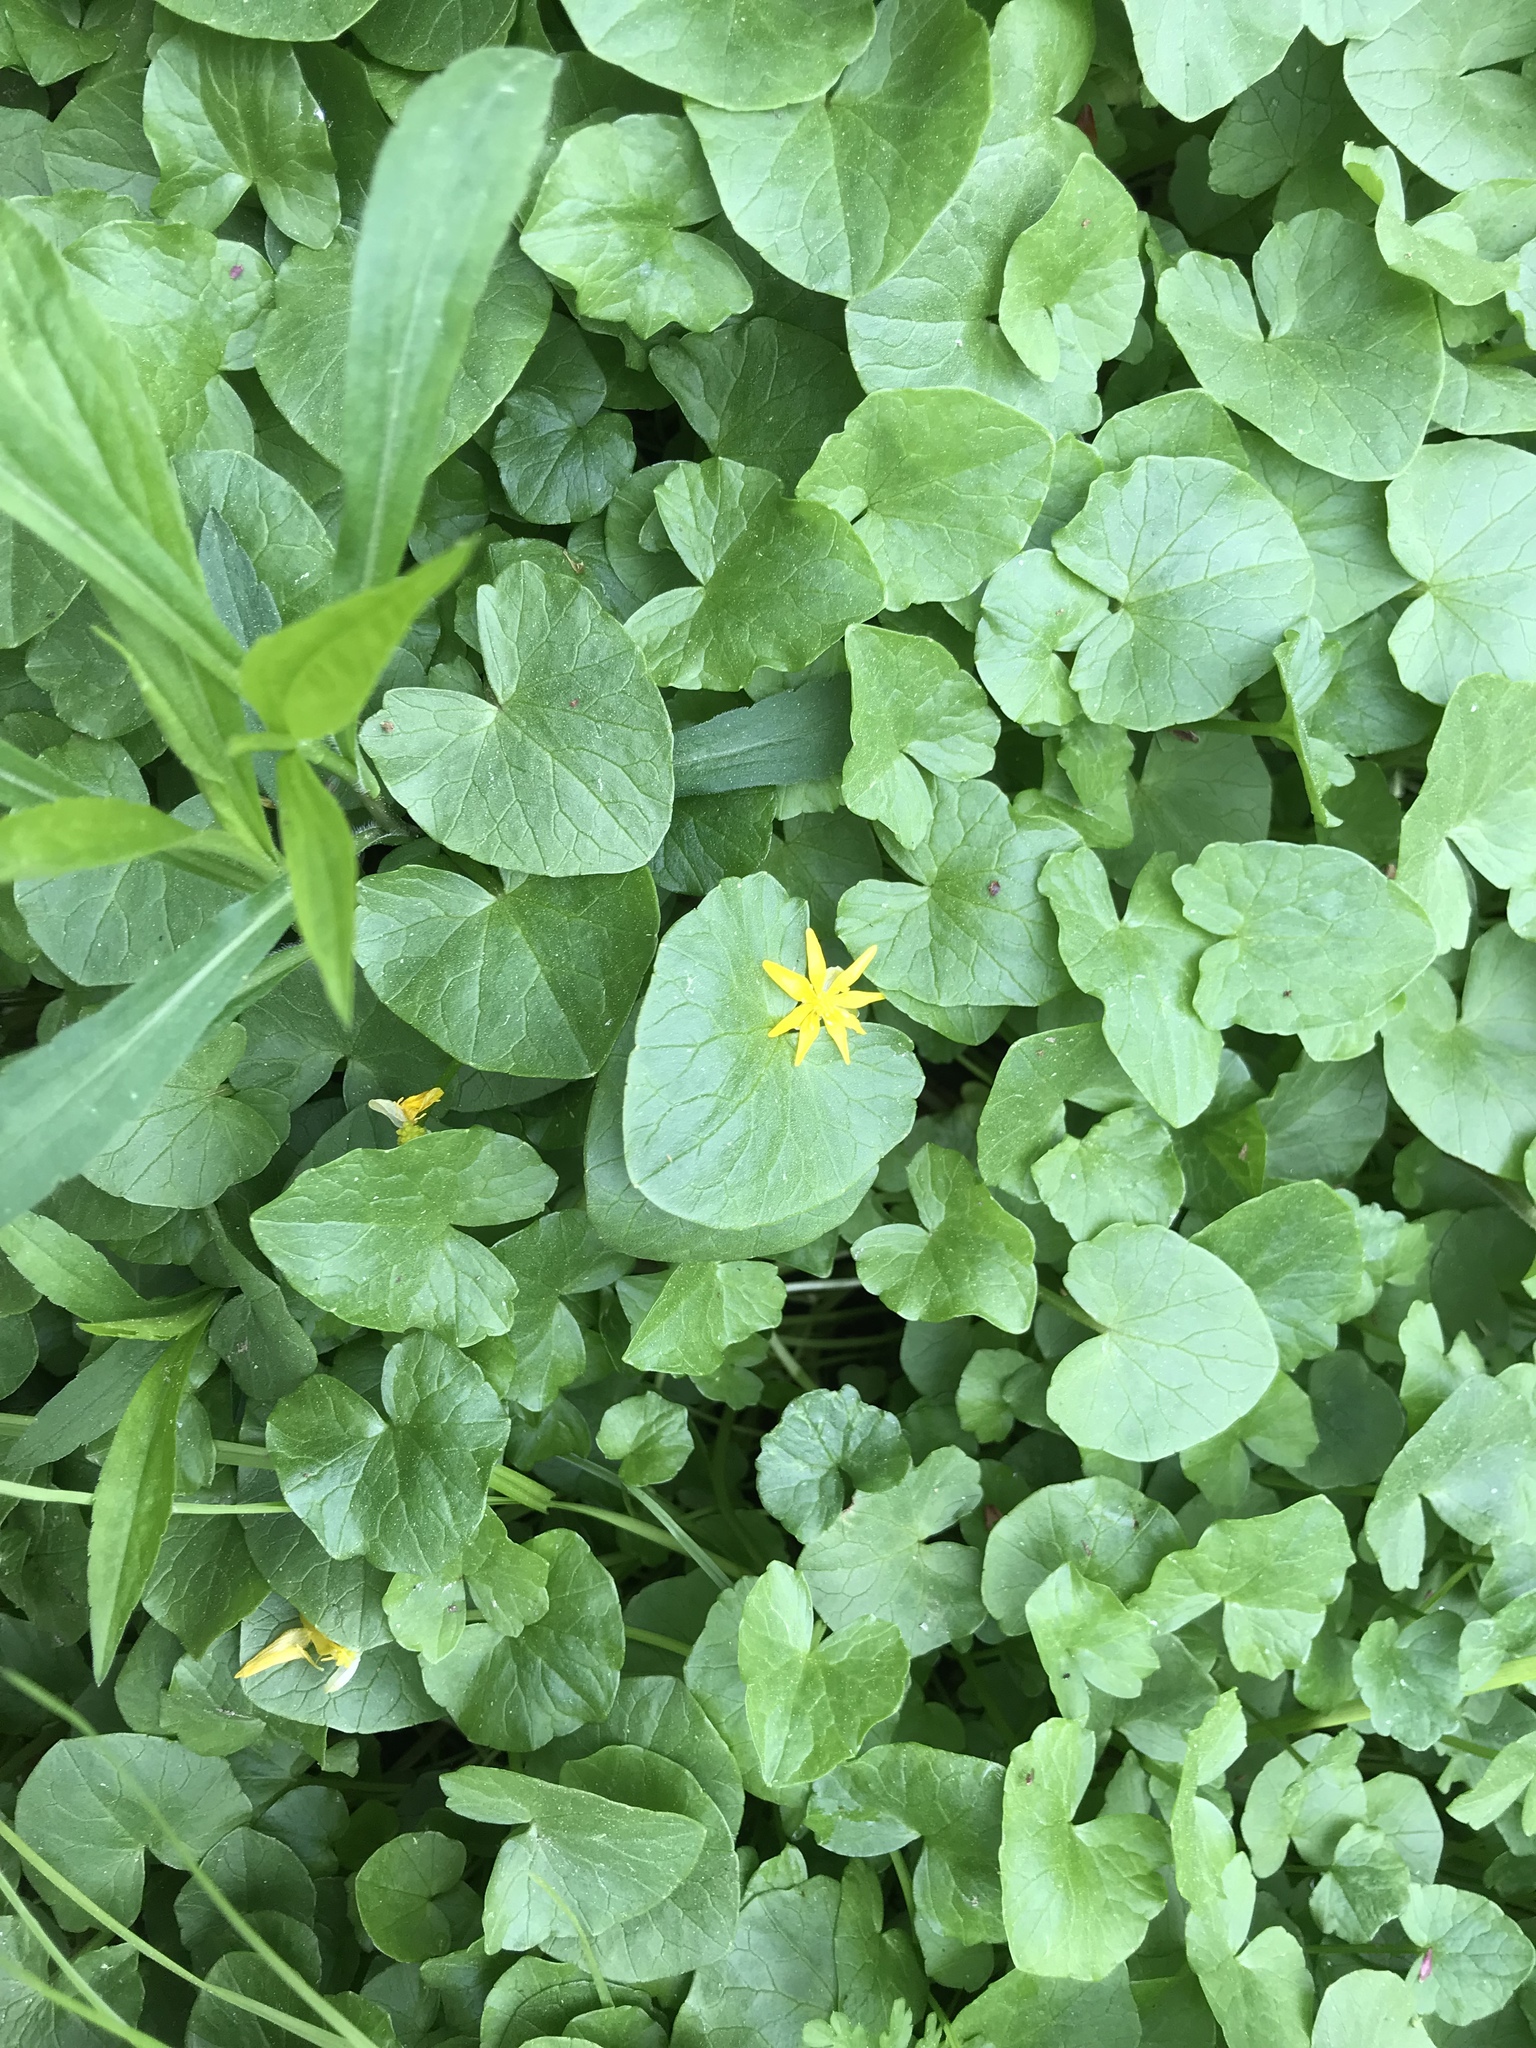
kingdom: Plantae
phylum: Tracheophyta
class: Magnoliopsida
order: Ranunculales
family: Ranunculaceae
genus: Ficaria
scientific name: Ficaria verna
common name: Lesser celandine
